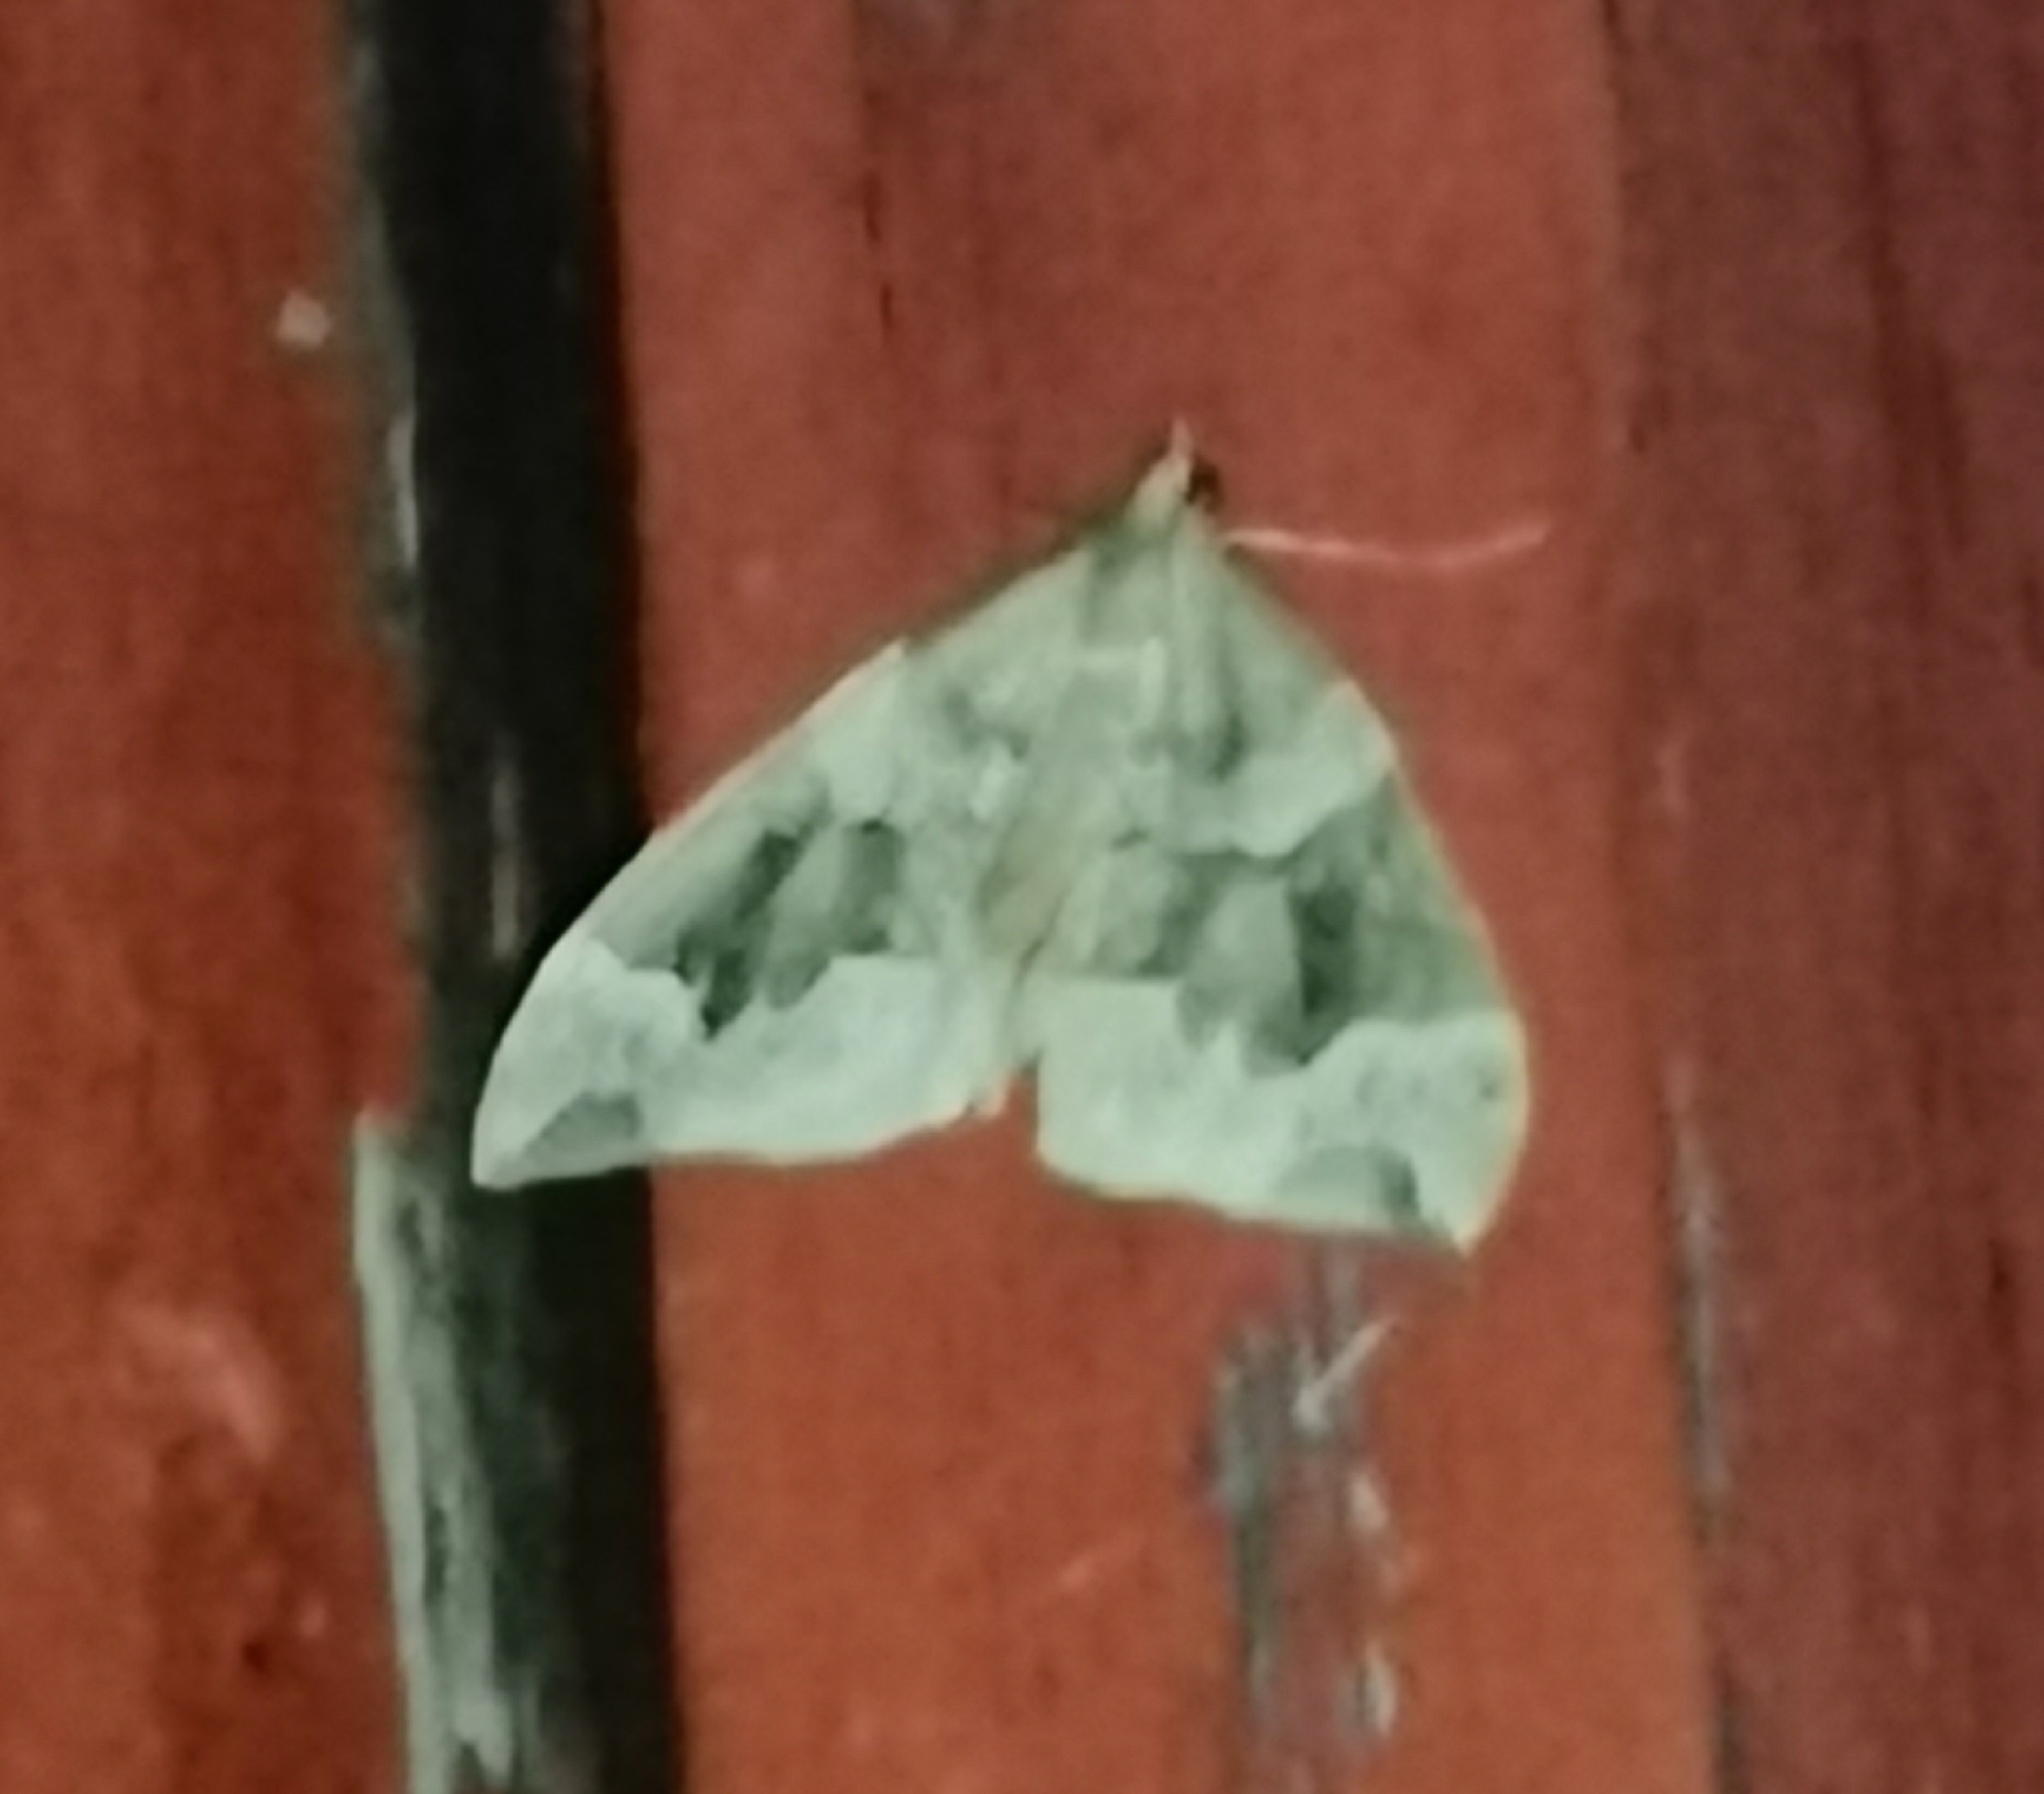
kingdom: Animalia
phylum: Arthropoda
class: Insecta
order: Lepidoptera
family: Geometridae
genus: Eulithis
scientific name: Eulithis prunata
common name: Phoenix
